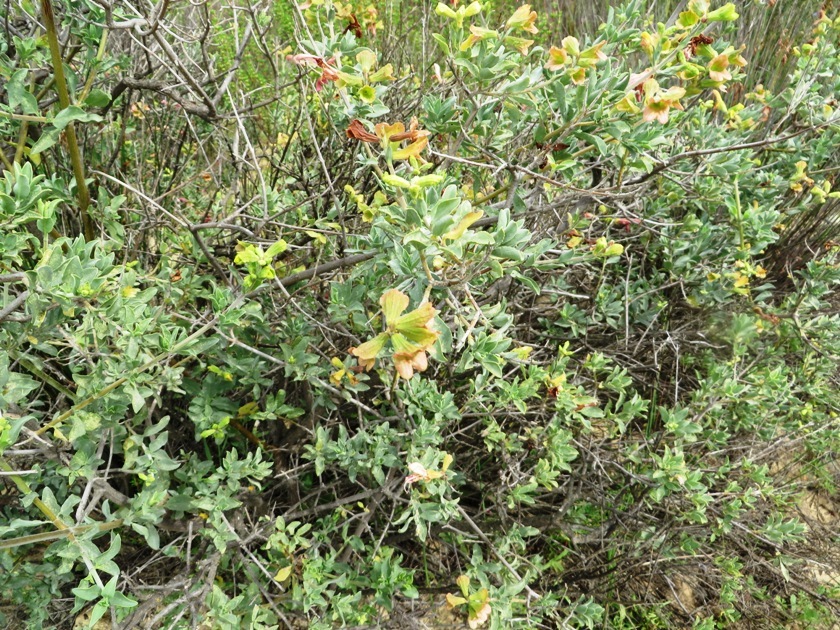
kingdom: Plantae
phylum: Tracheophyta
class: Magnoliopsida
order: Lamiales
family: Lamiaceae
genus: Salvia
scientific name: Salvia lanceolata
